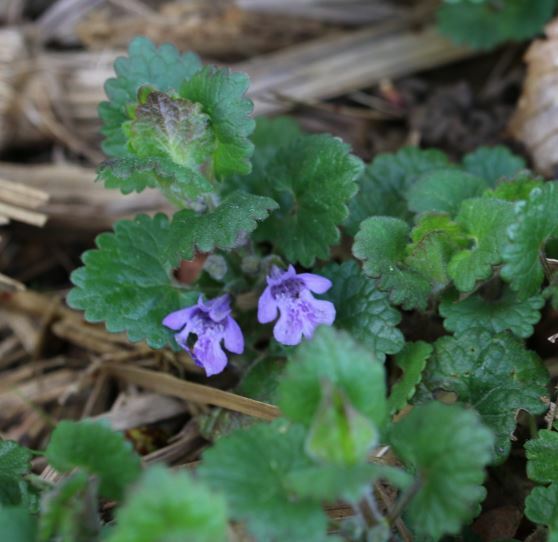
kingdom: Plantae
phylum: Tracheophyta
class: Magnoliopsida
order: Lamiales
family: Lamiaceae
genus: Glechoma
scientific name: Glechoma hederacea
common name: Ground ivy
